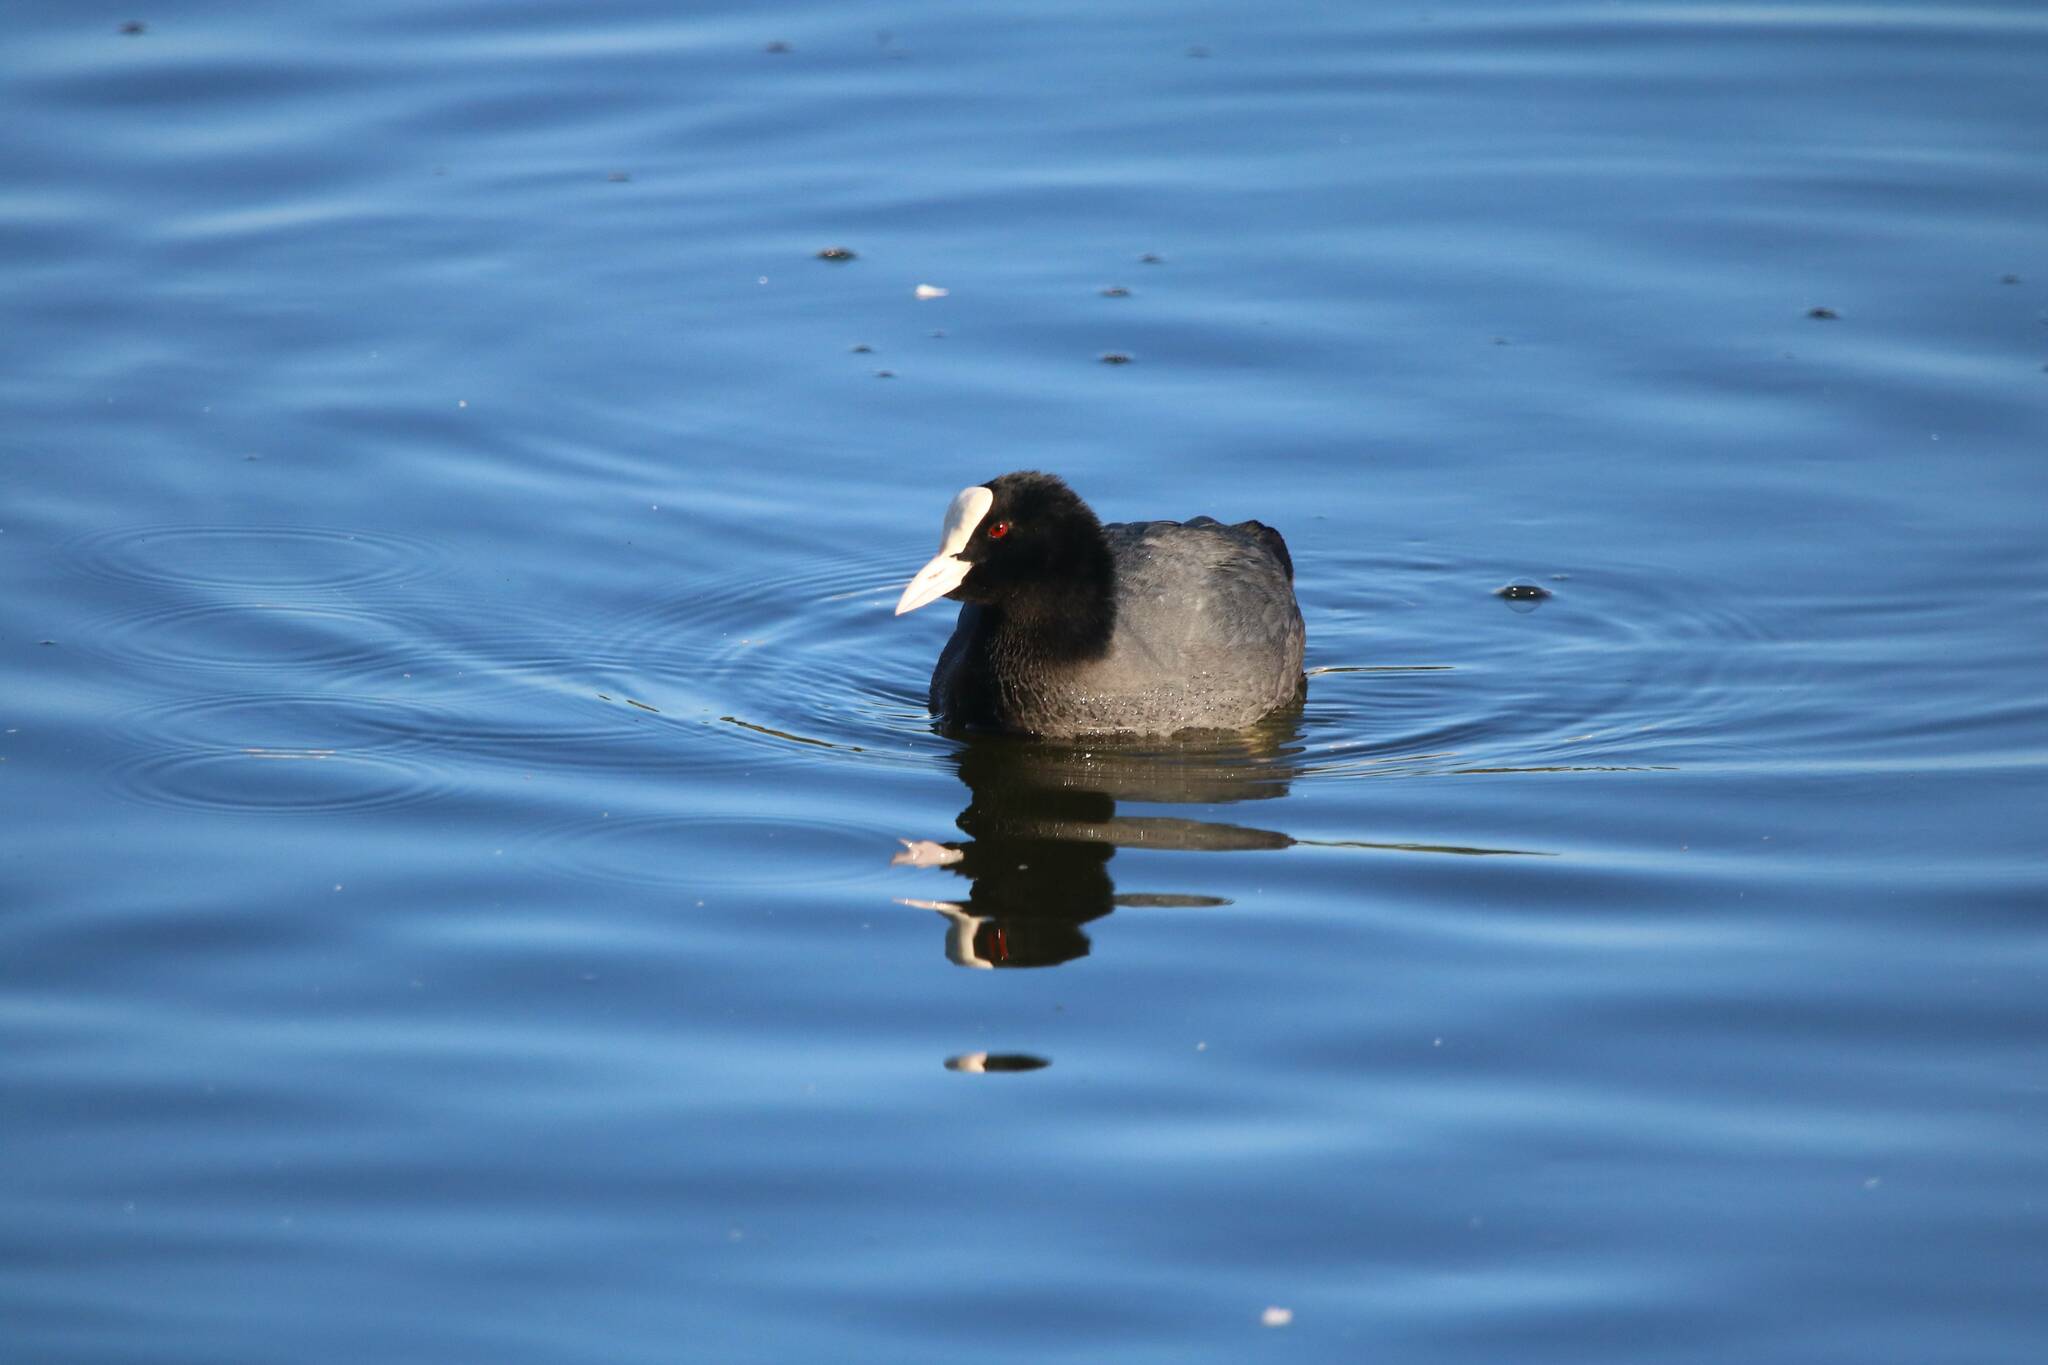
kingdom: Animalia
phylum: Chordata
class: Aves
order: Gruiformes
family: Rallidae
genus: Fulica
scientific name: Fulica atra
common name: Eurasian coot
